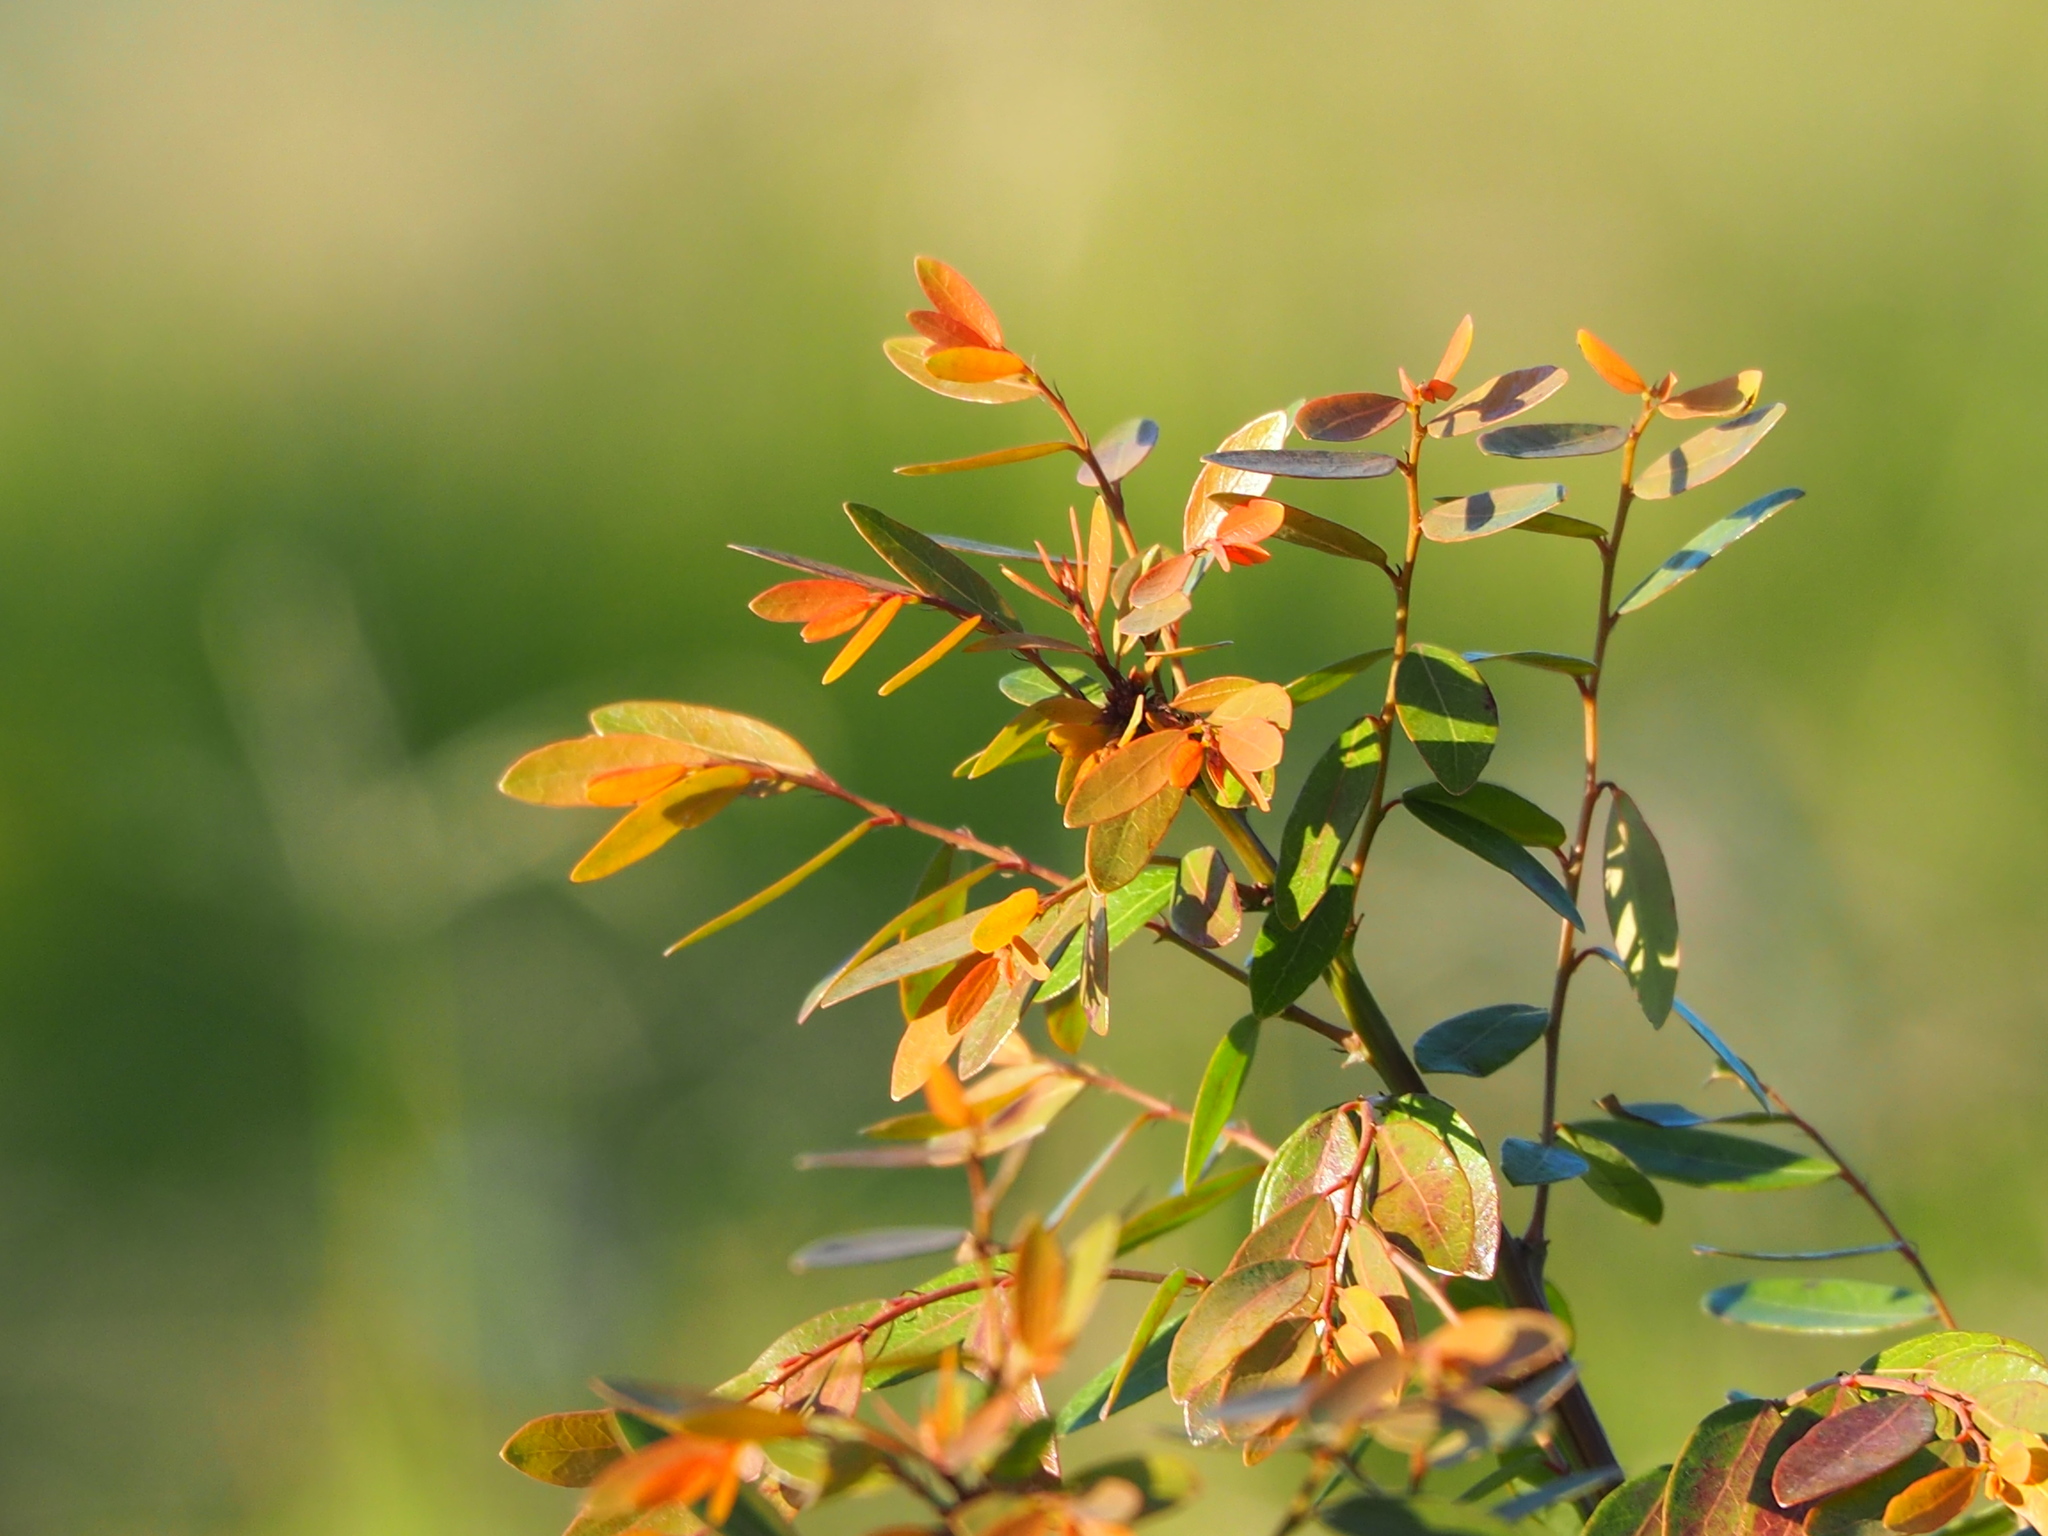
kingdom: Plantae
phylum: Tracheophyta
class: Magnoliopsida
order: Malpighiales
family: Phyllanthaceae
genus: Phyllanthus
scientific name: Phyllanthus reticulatus
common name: Potato bush
